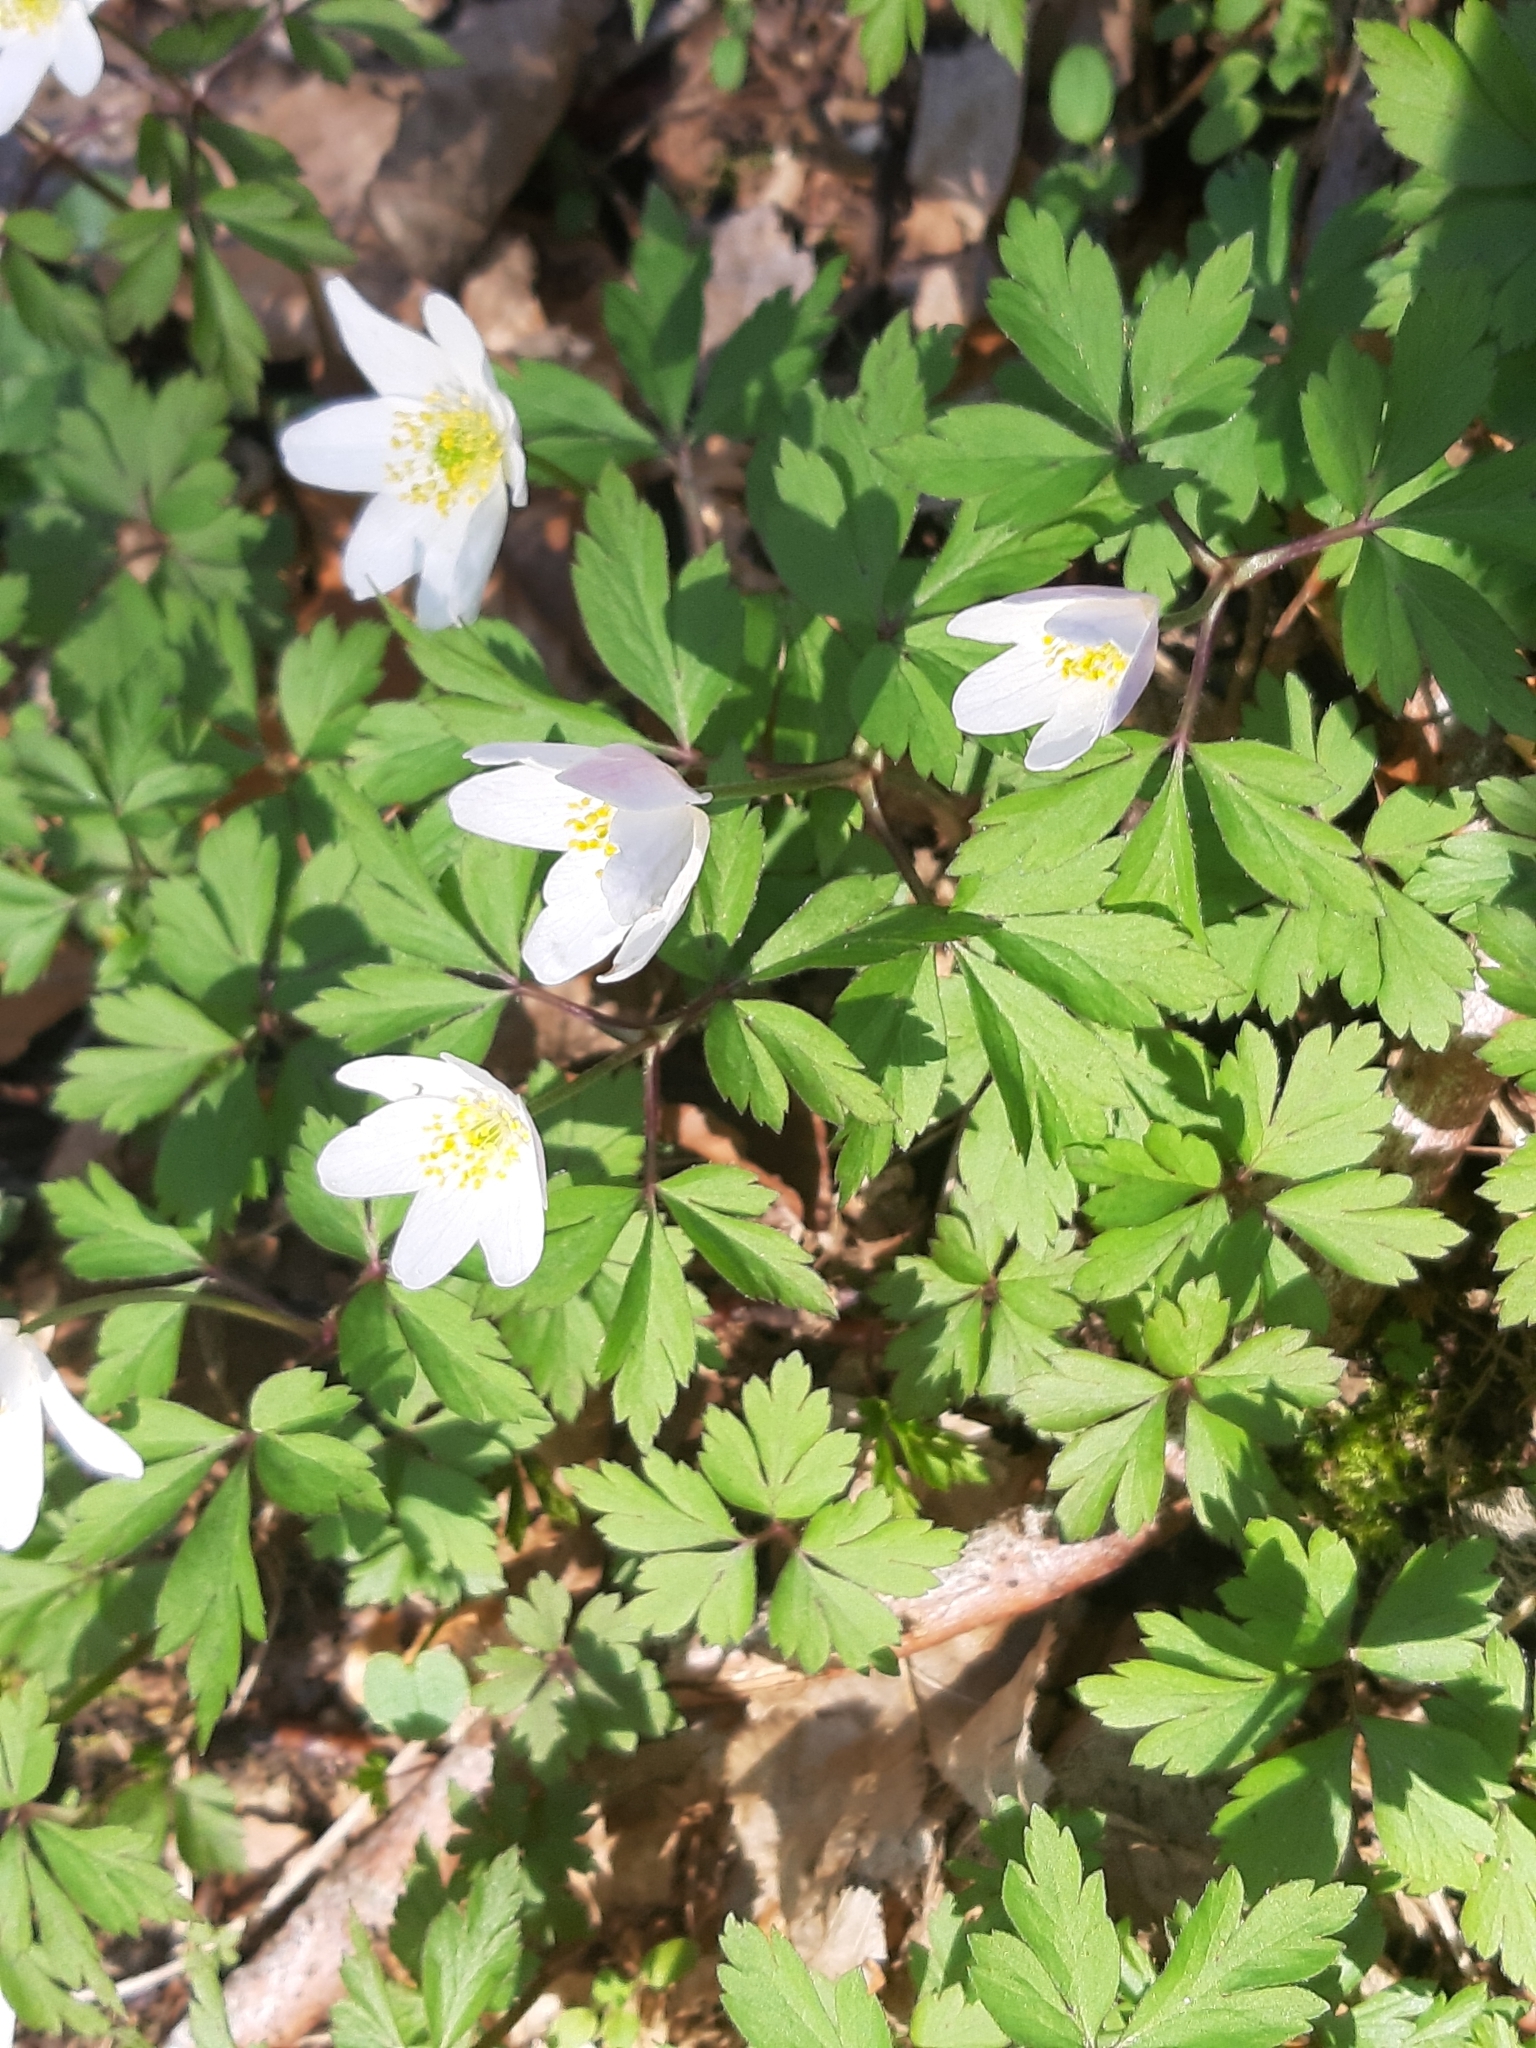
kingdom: Plantae
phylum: Tracheophyta
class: Magnoliopsida
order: Ranunculales
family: Ranunculaceae
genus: Anemone
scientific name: Anemone nemorosa
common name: Wood anemone
